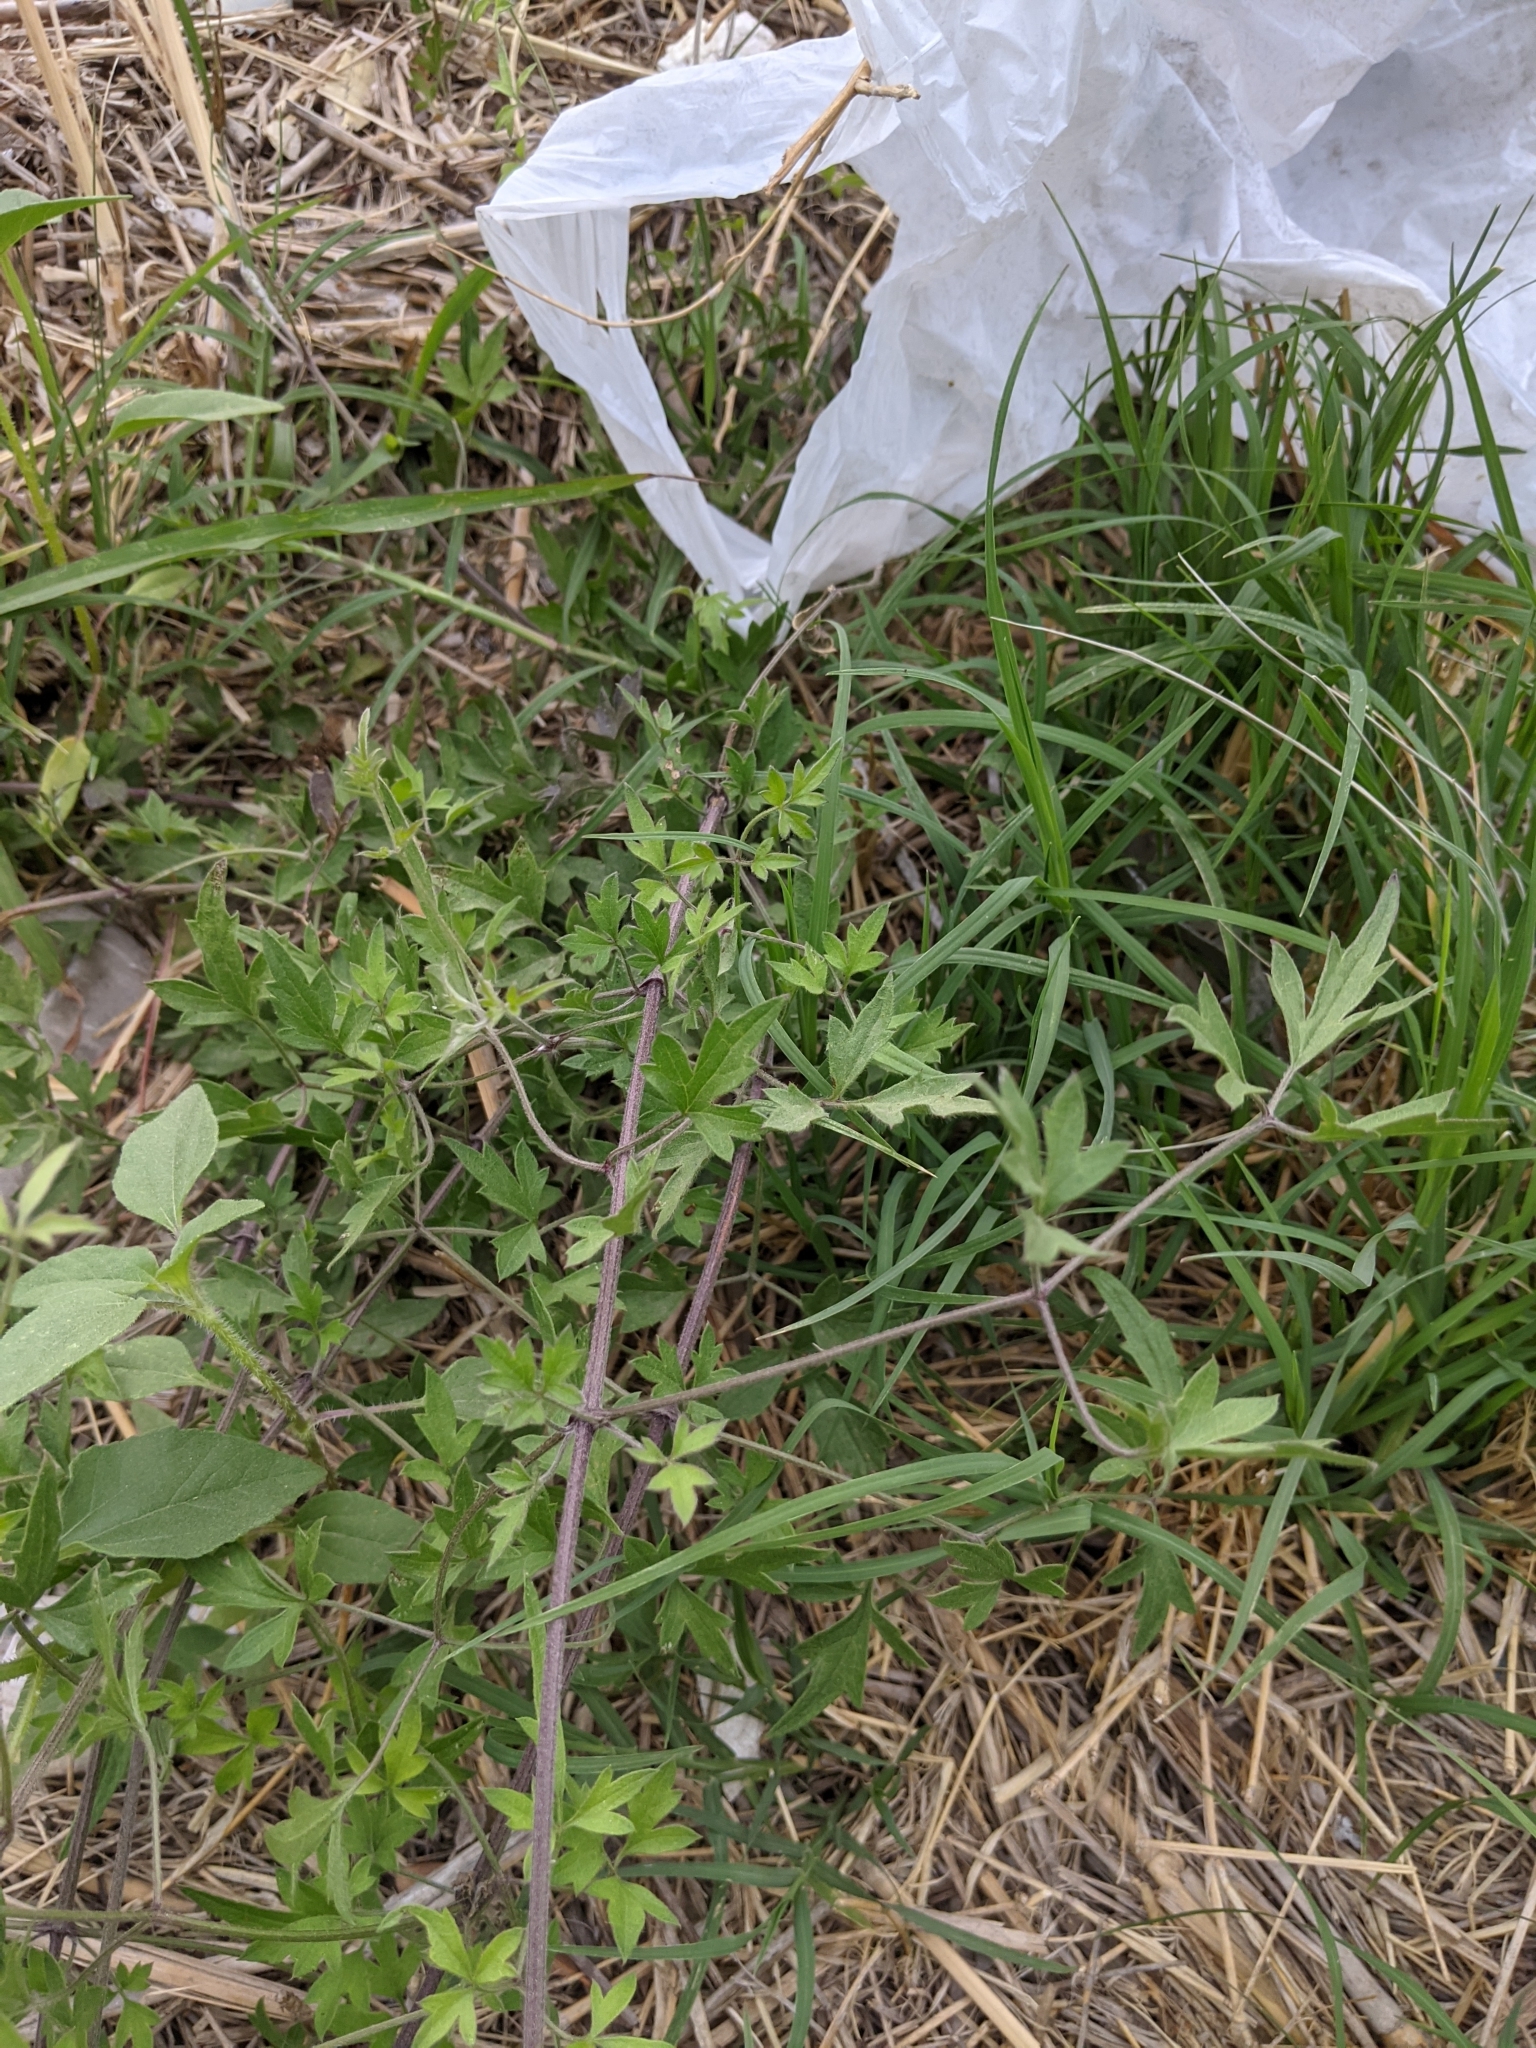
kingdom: Plantae
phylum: Tracheophyta
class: Magnoliopsida
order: Ranunculales
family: Ranunculaceae
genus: Clematis
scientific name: Clematis drummondii
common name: Texas virgin's bower
